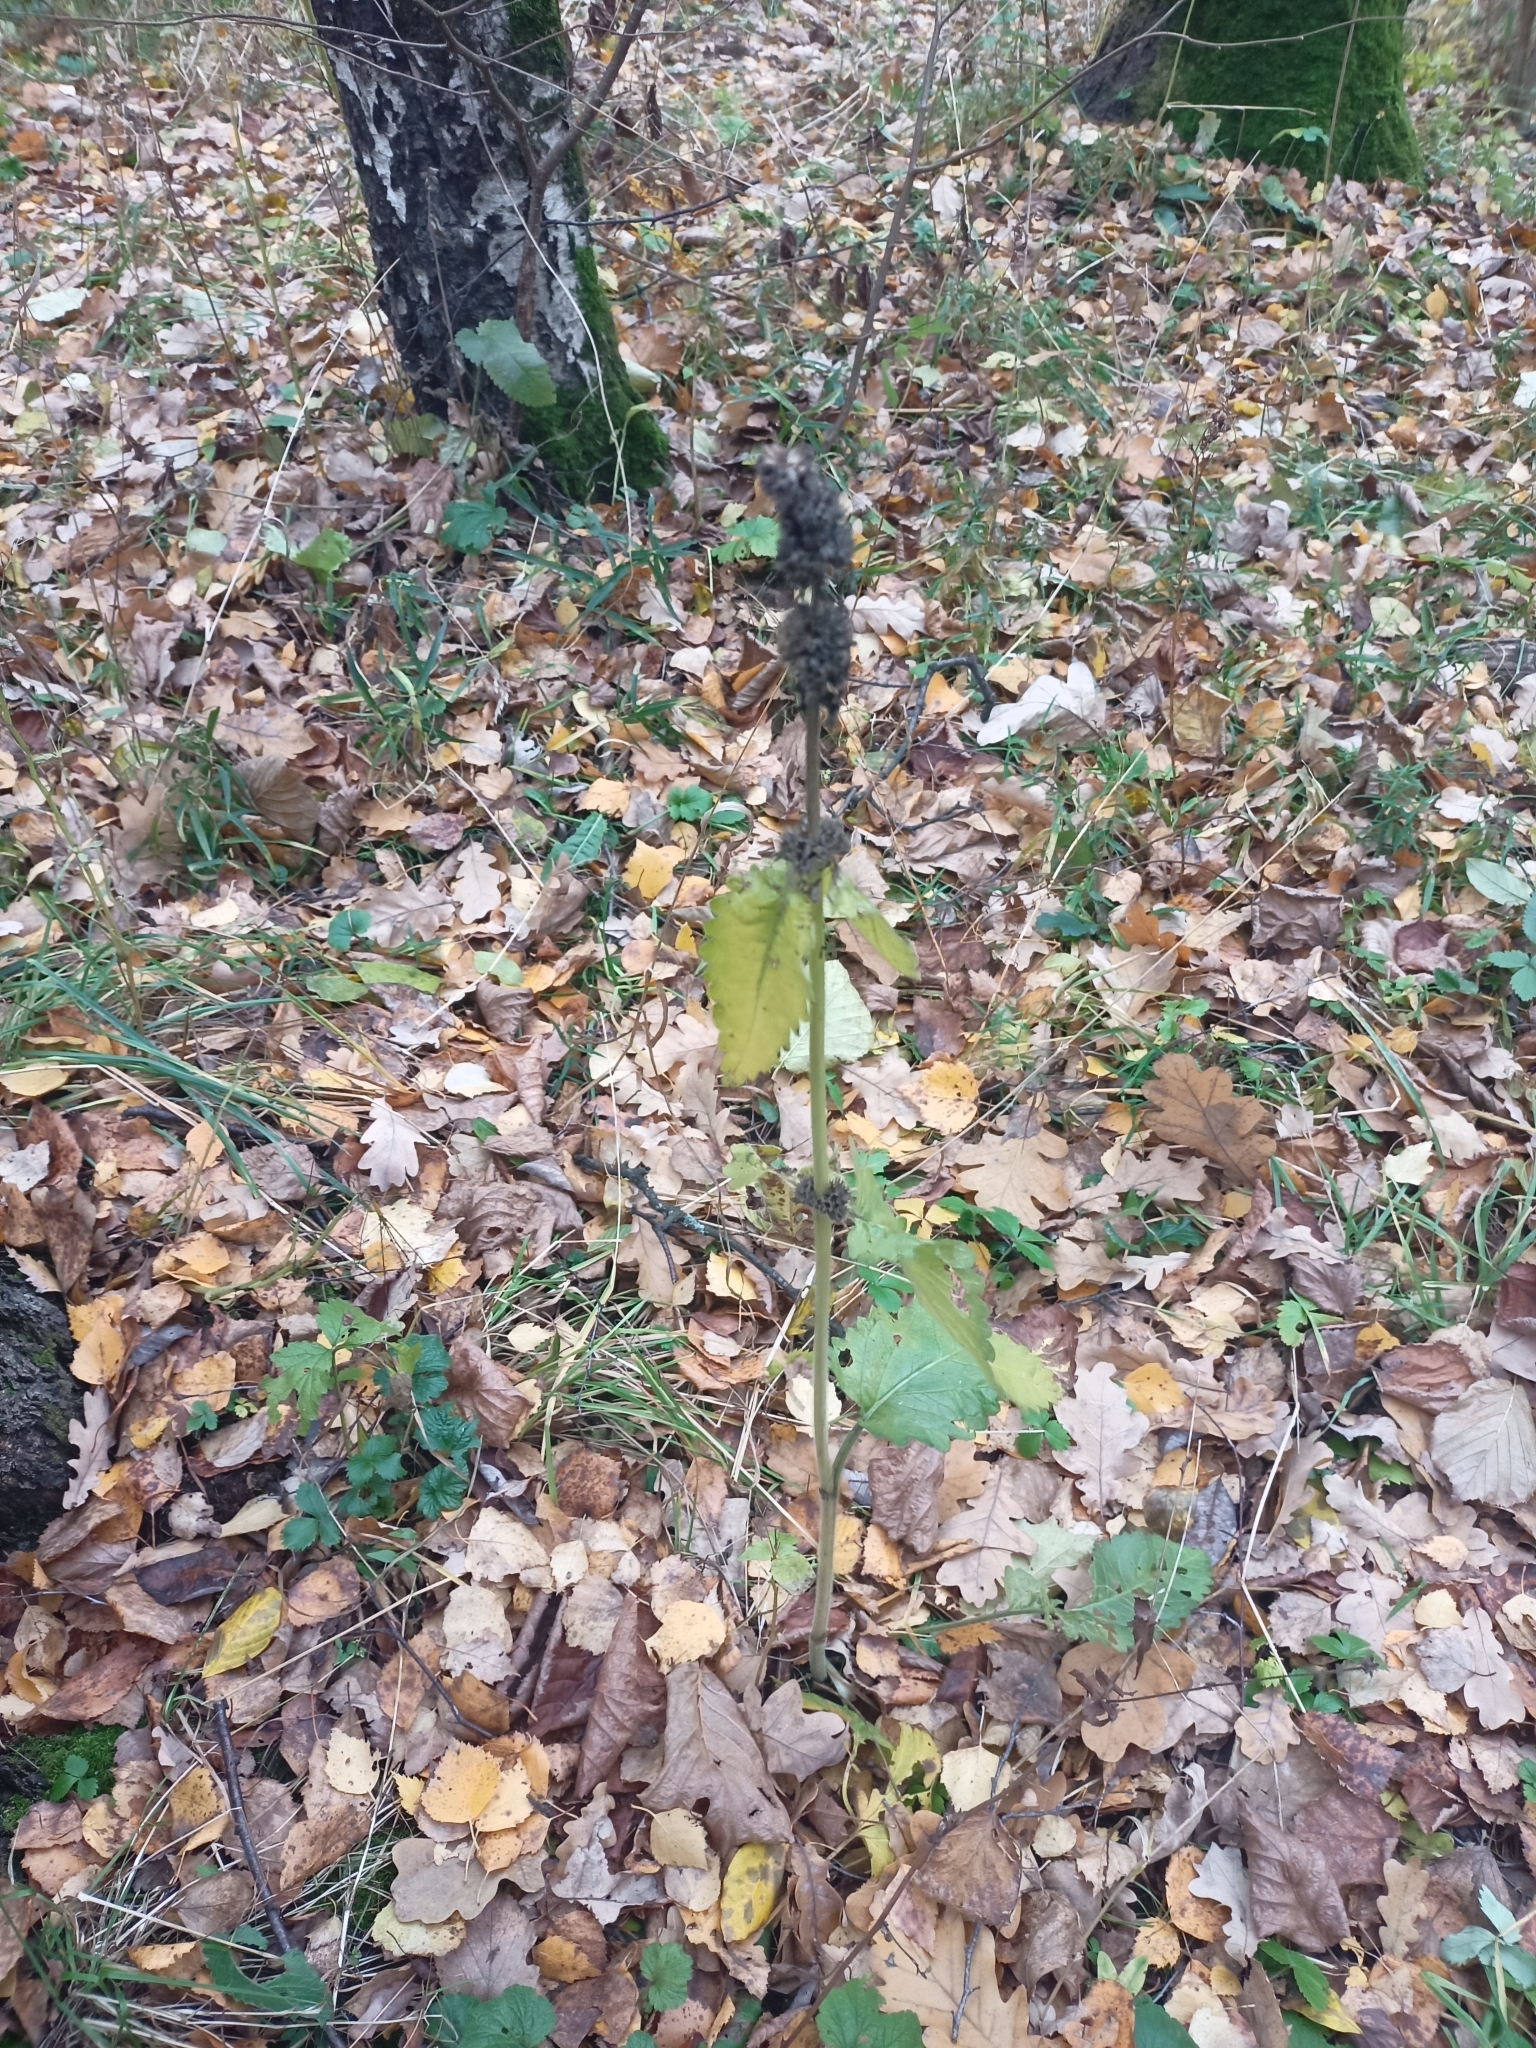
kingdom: Plantae
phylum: Tracheophyta
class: Magnoliopsida
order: Lamiales
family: Lamiaceae
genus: Betonica
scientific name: Betonica officinalis
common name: Bishop's-wort
